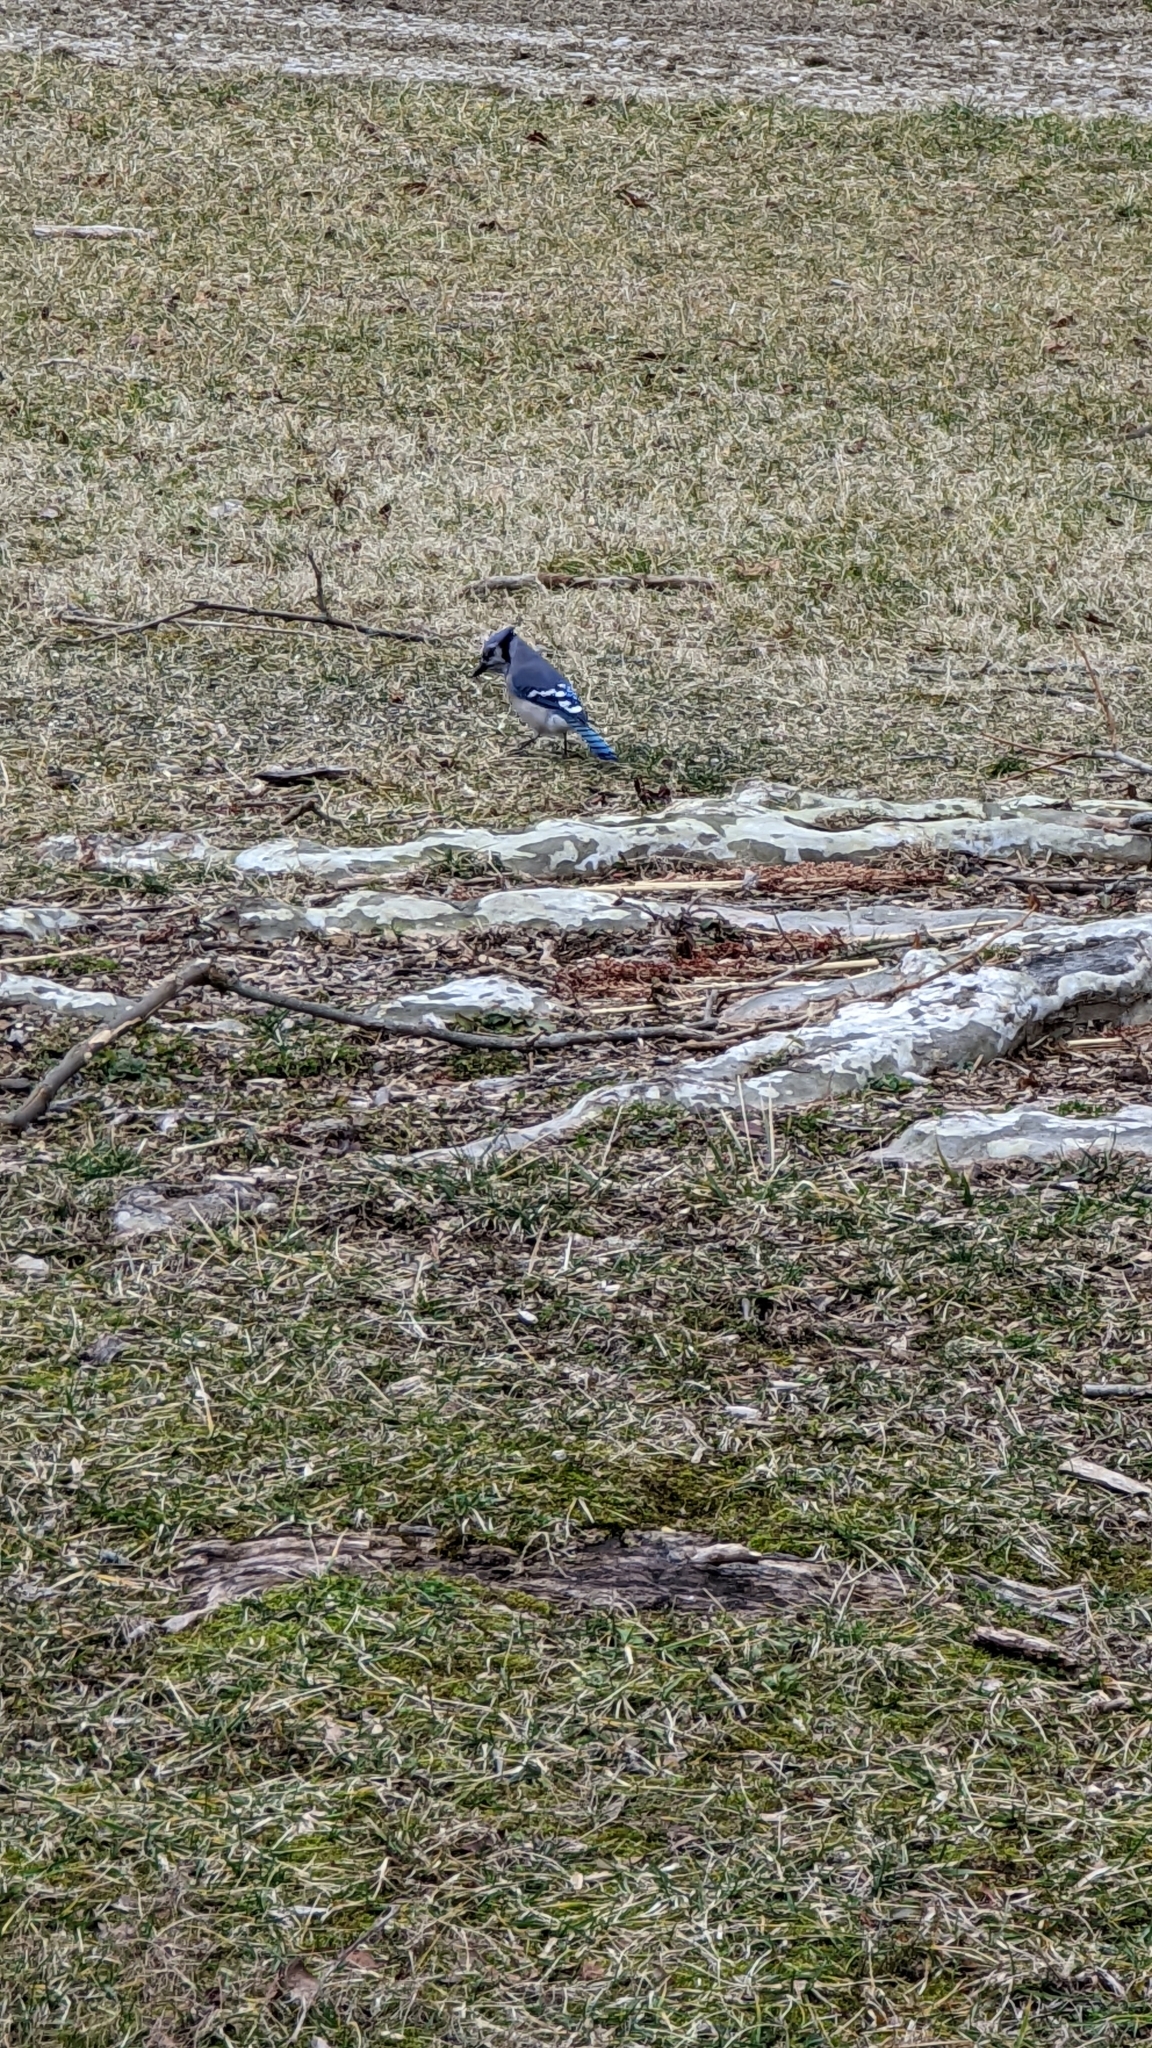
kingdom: Animalia
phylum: Chordata
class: Aves
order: Passeriformes
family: Corvidae
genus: Cyanocitta
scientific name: Cyanocitta cristata
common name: Blue jay
